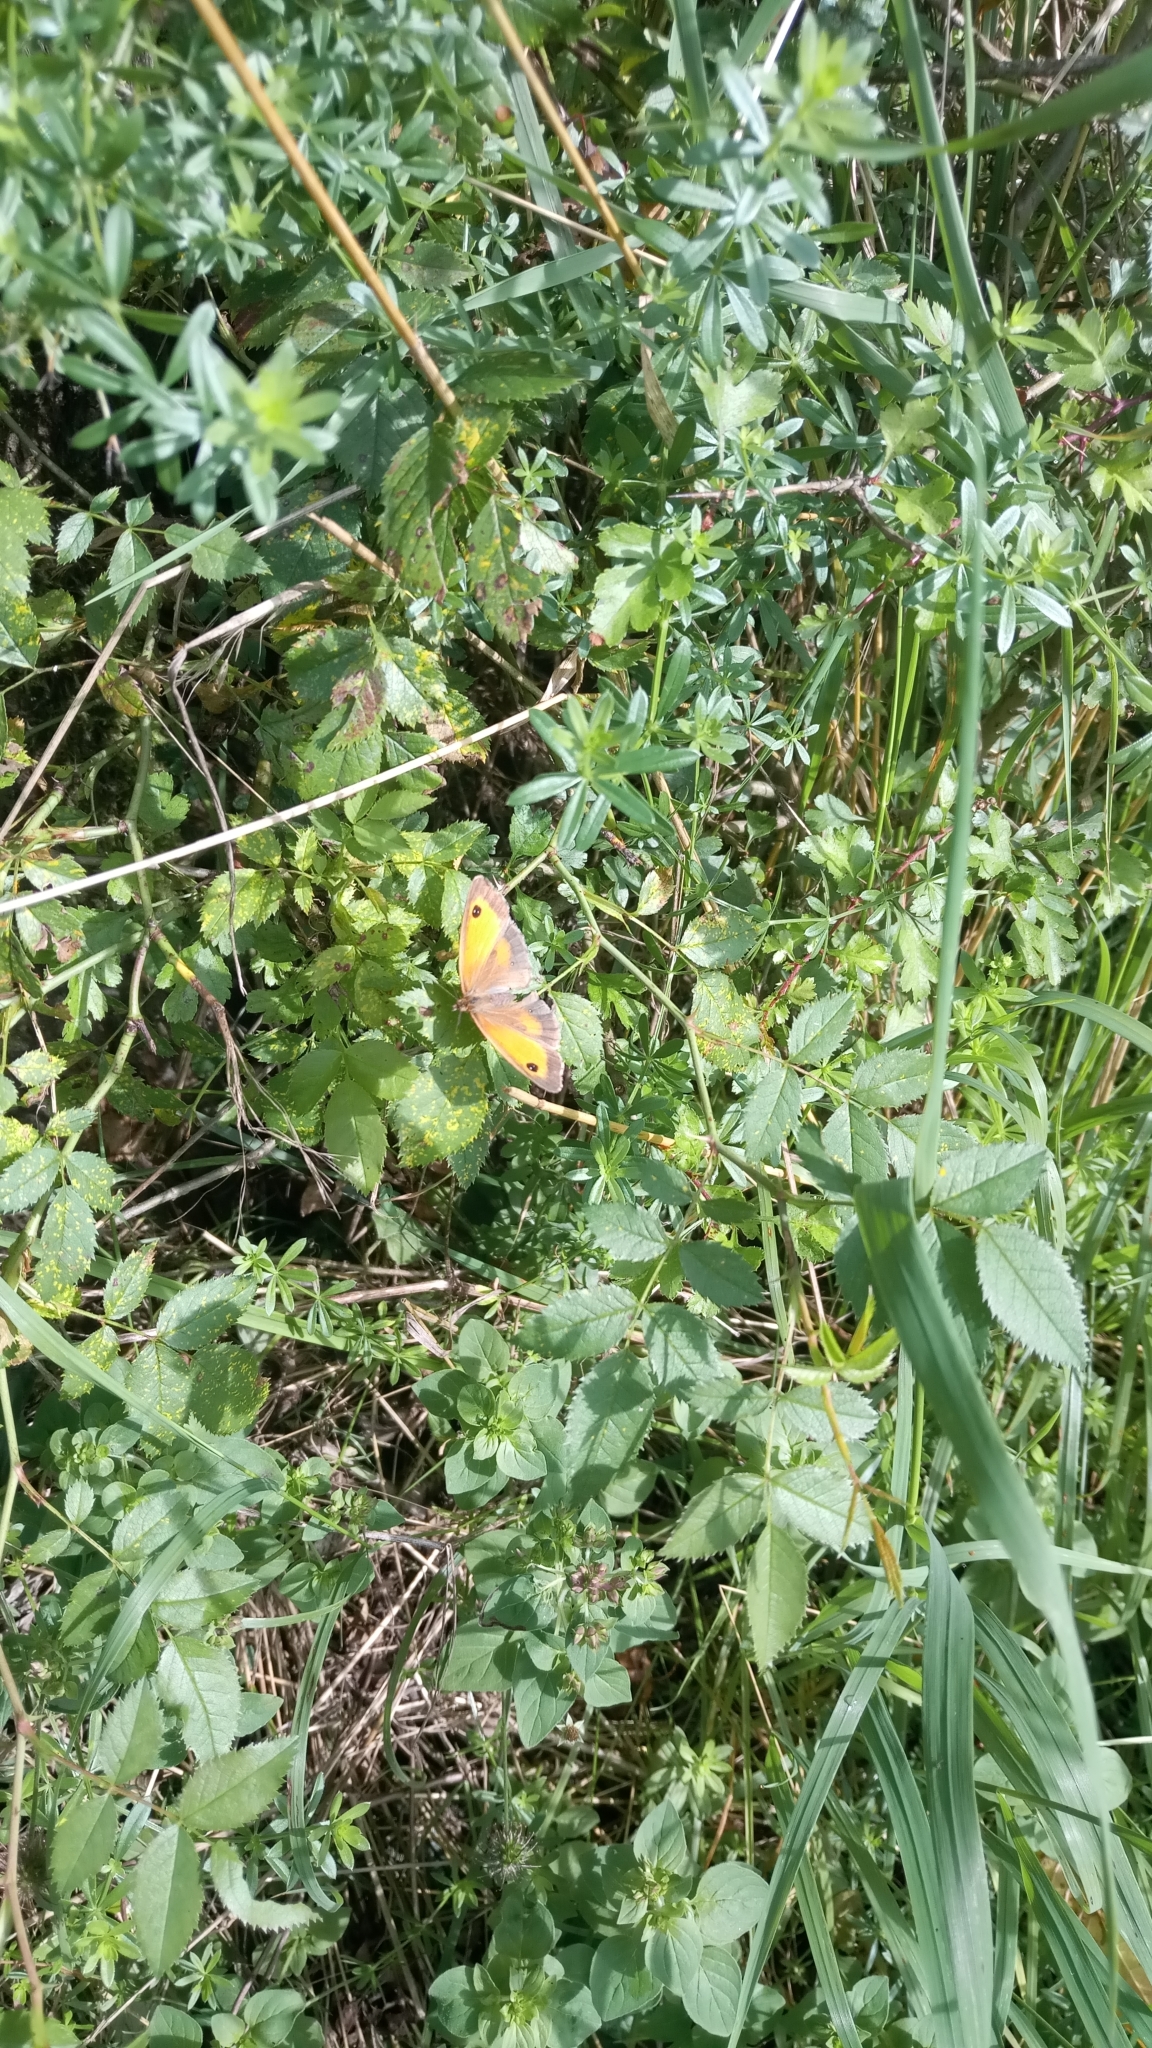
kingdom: Animalia
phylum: Arthropoda
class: Insecta
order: Lepidoptera
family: Nymphalidae
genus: Pyronia
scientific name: Pyronia tithonus
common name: Gatekeeper
